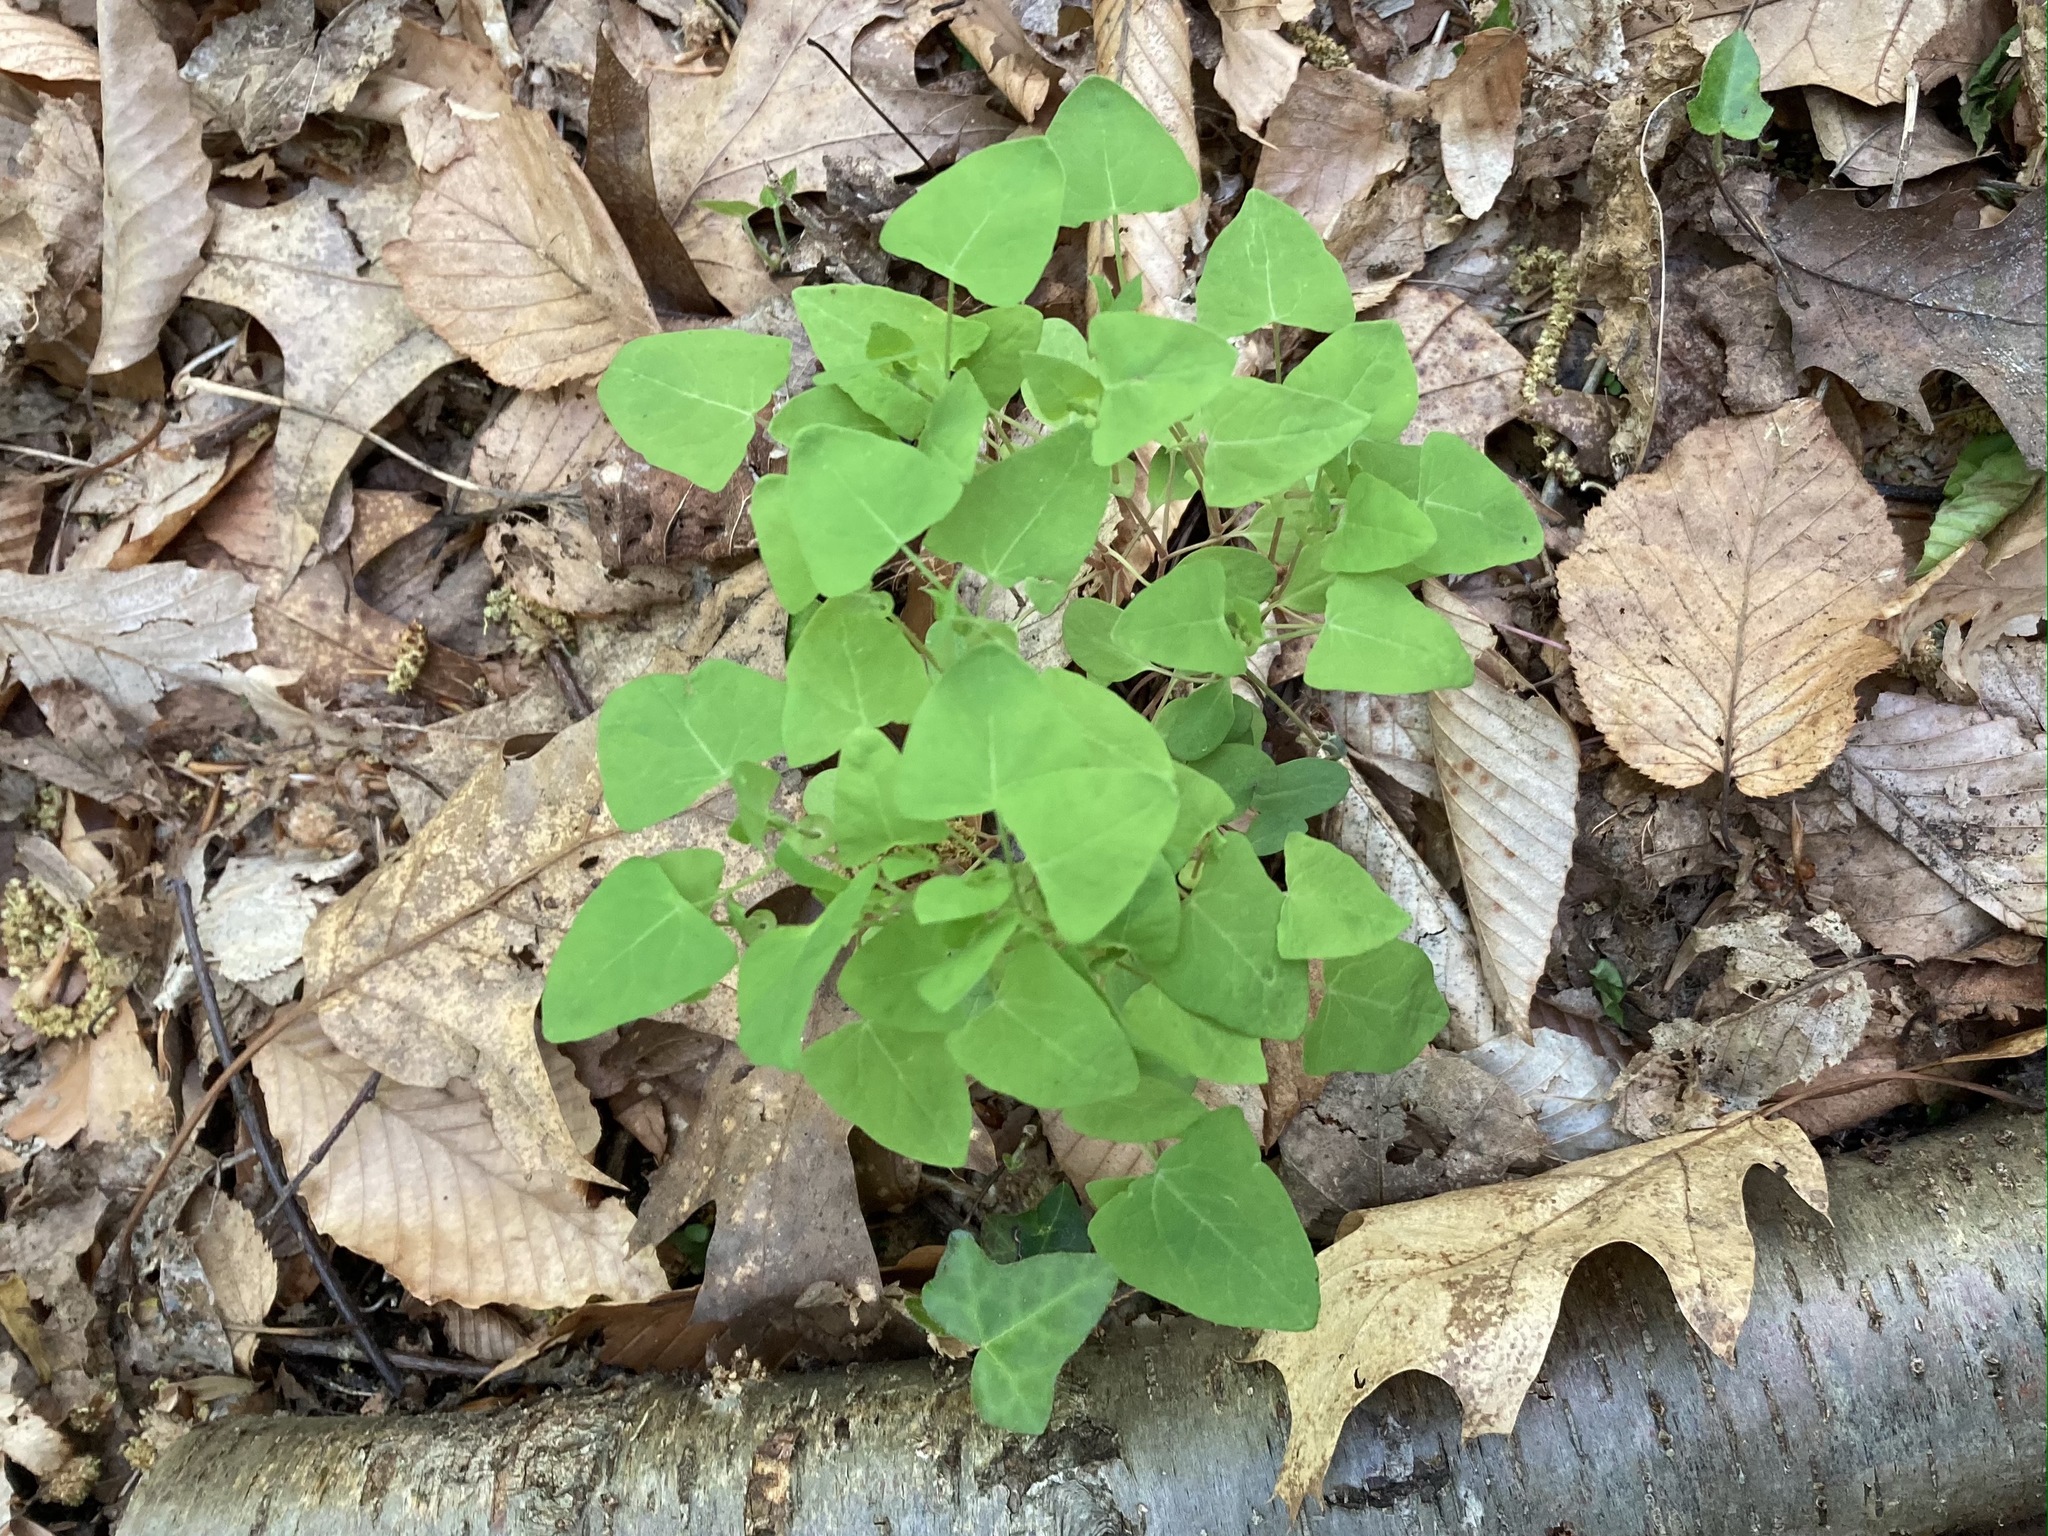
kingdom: Plantae
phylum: Tracheophyta
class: Magnoliopsida
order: Caryophyllales
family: Polygonaceae
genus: Persicaria
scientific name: Persicaria perfoliata
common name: Asiatic tearthumb
